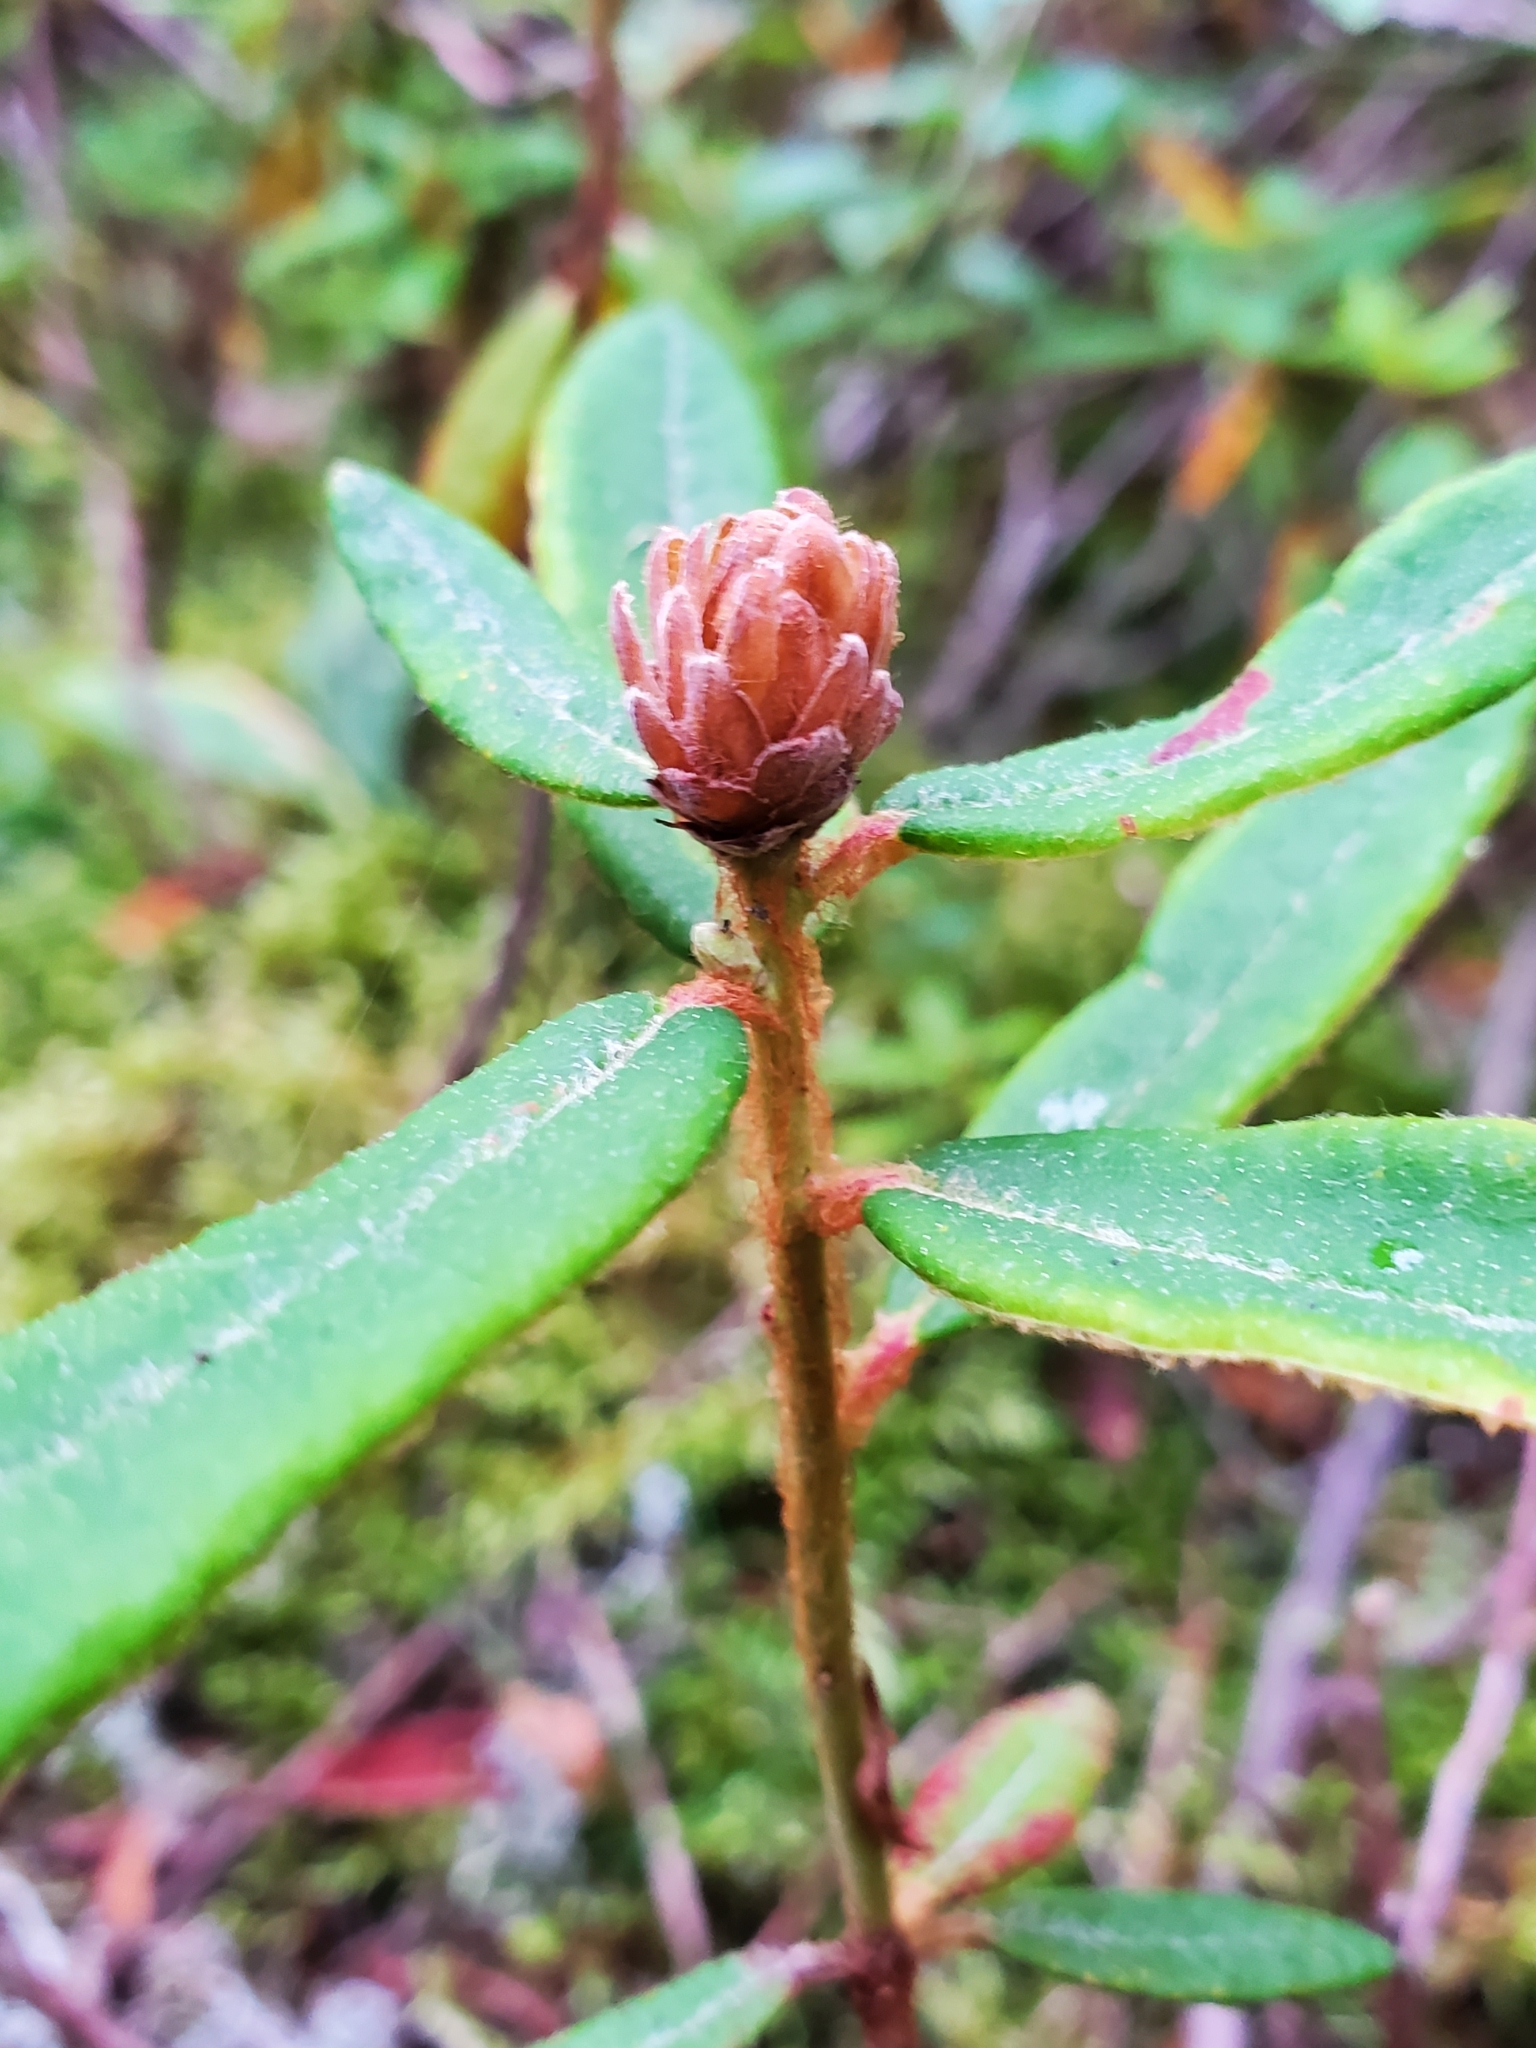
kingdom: Plantae
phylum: Tracheophyta
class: Magnoliopsida
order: Ericales
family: Ericaceae
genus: Rhododendron
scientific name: Rhododendron groenlandicum
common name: Bog labrador tea
